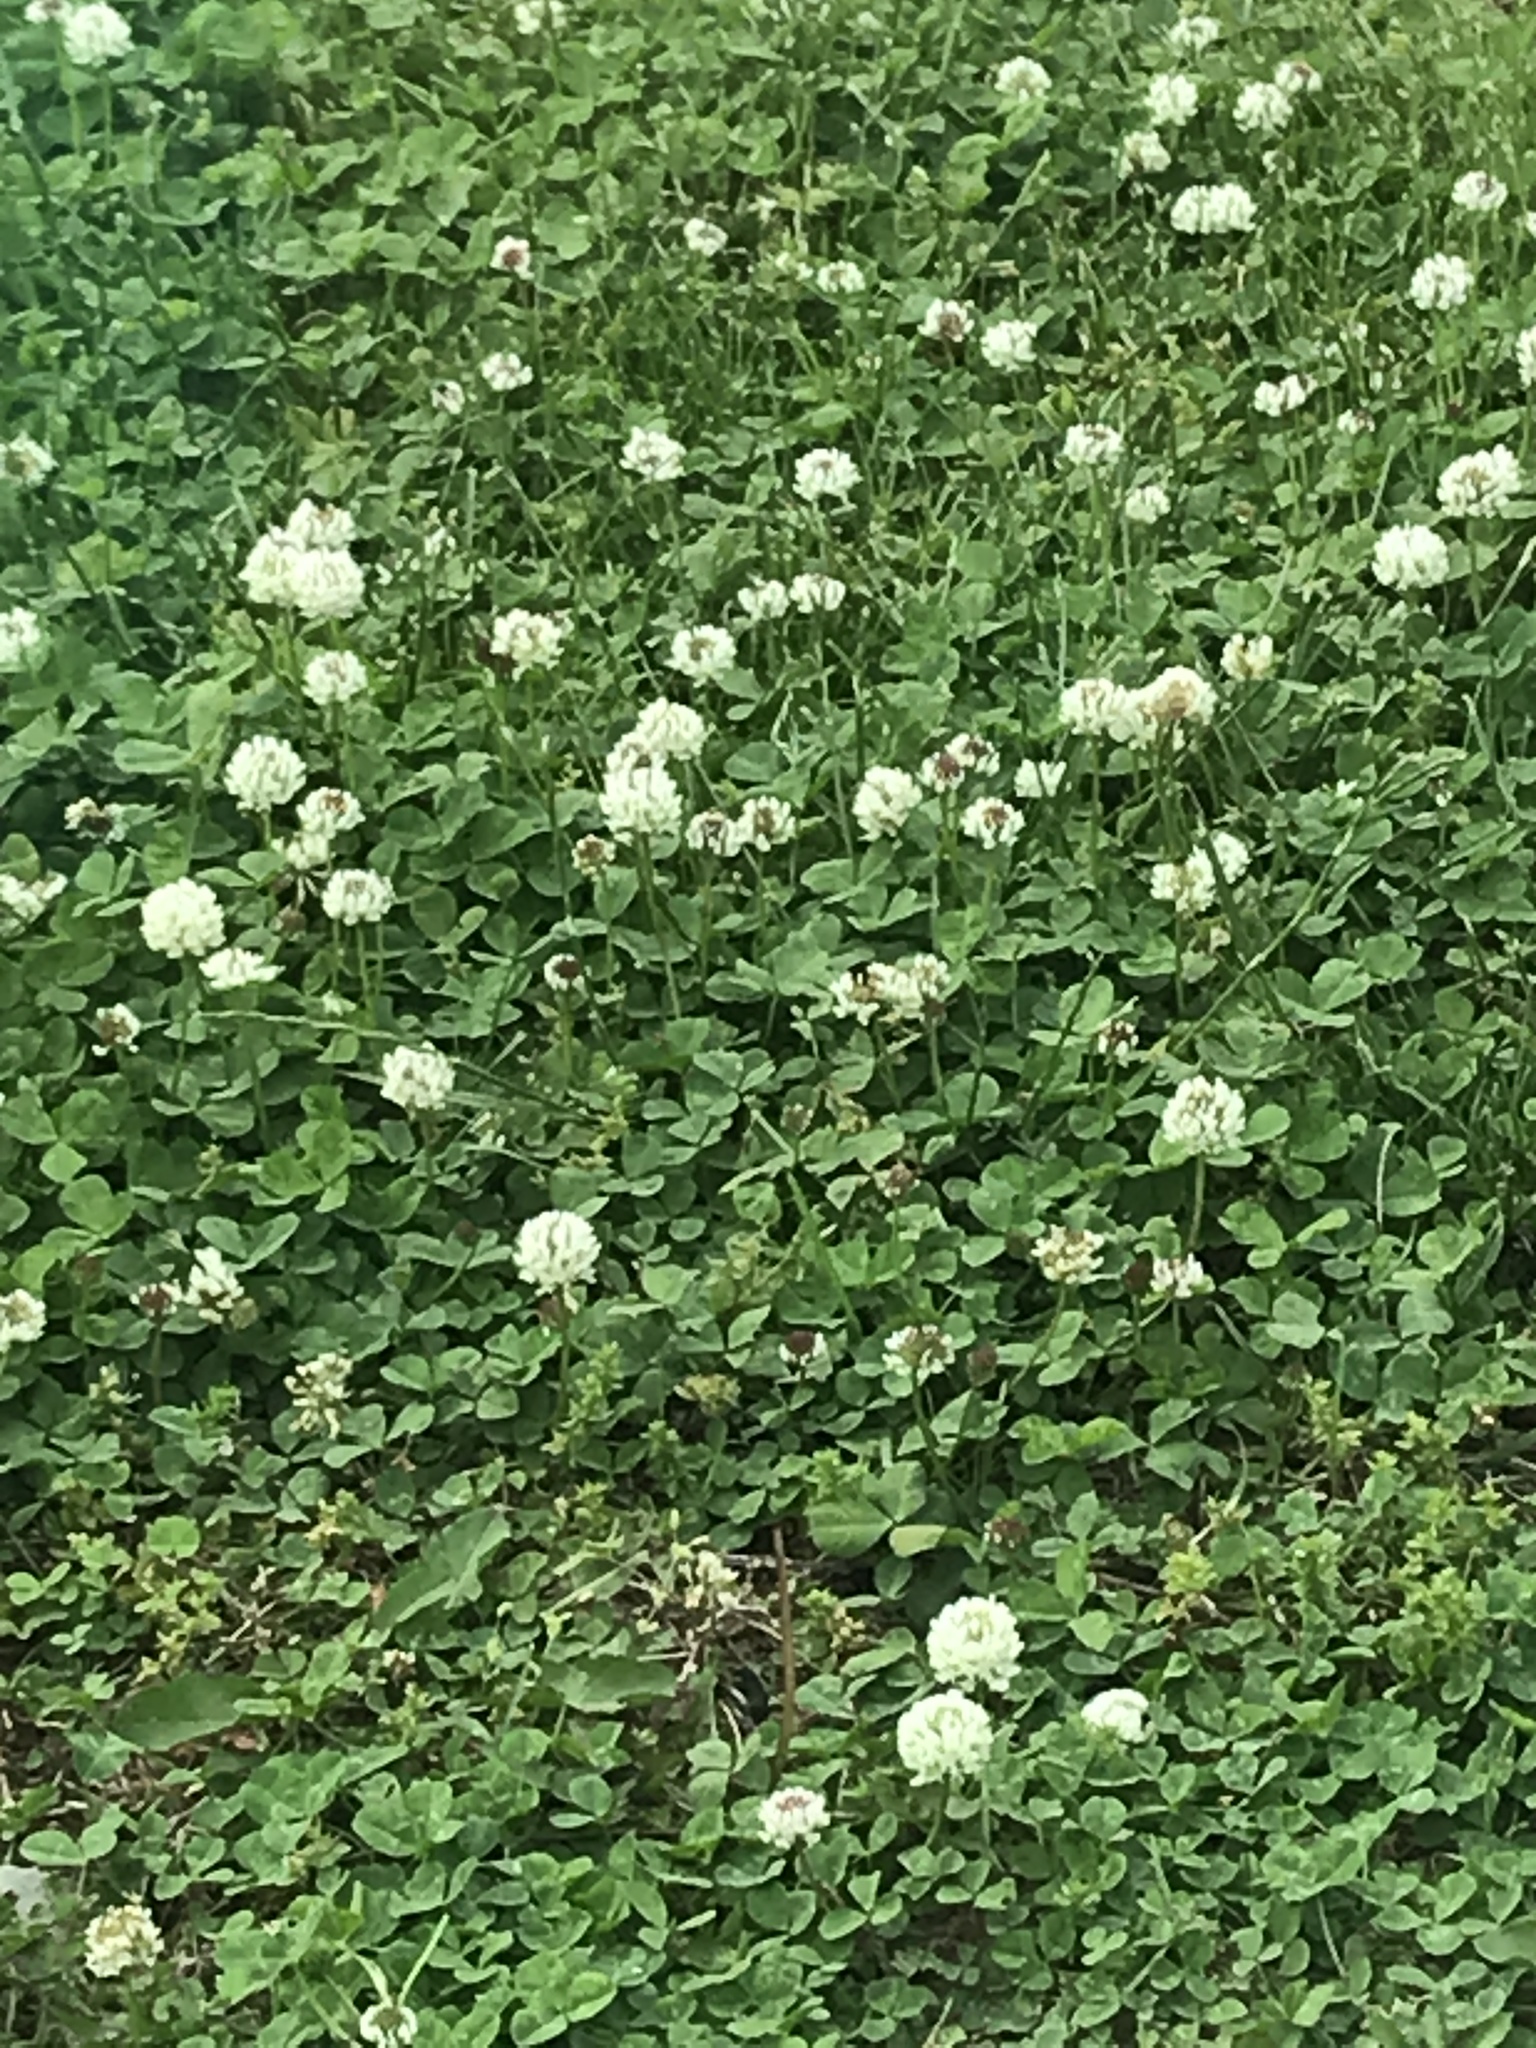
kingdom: Plantae
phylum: Tracheophyta
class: Magnoliopsida
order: Fabales
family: Fabaceae
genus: Trifolium
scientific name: Trifolium repens
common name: White clover
